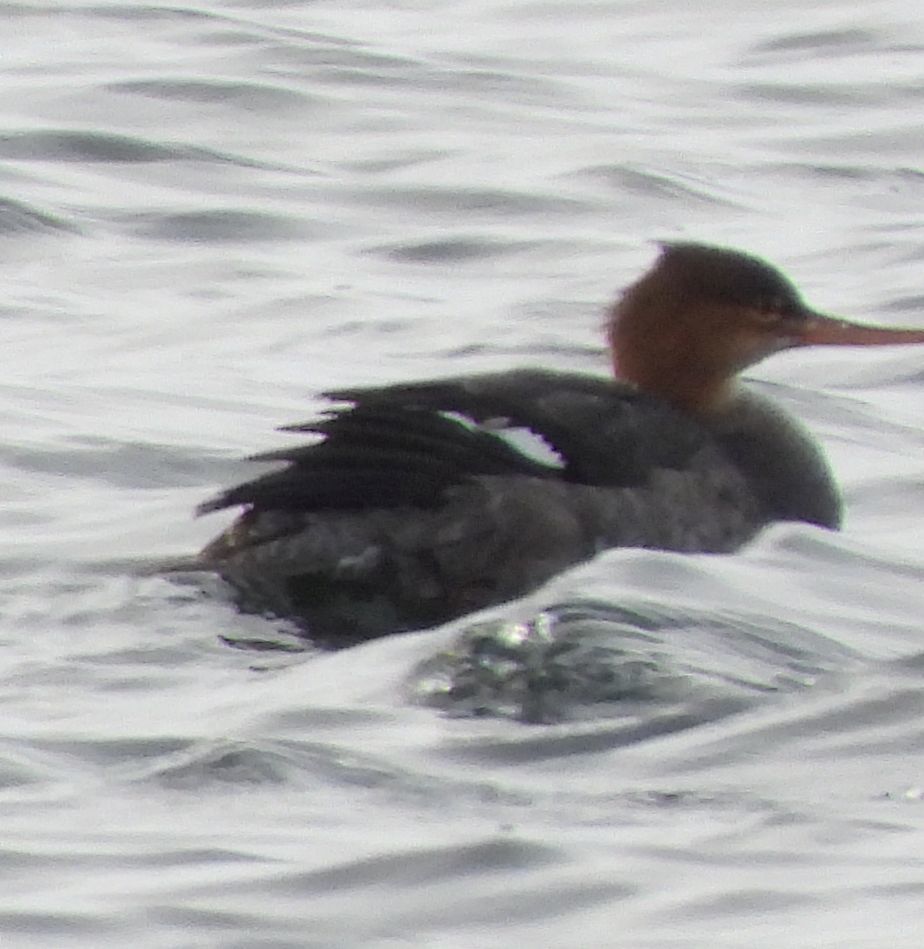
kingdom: Animalia
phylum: Chordata
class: Aves
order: Anseriformes
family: Anatidae
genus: Mergus
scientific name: Mergus serrator
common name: Red-breasted merganser
